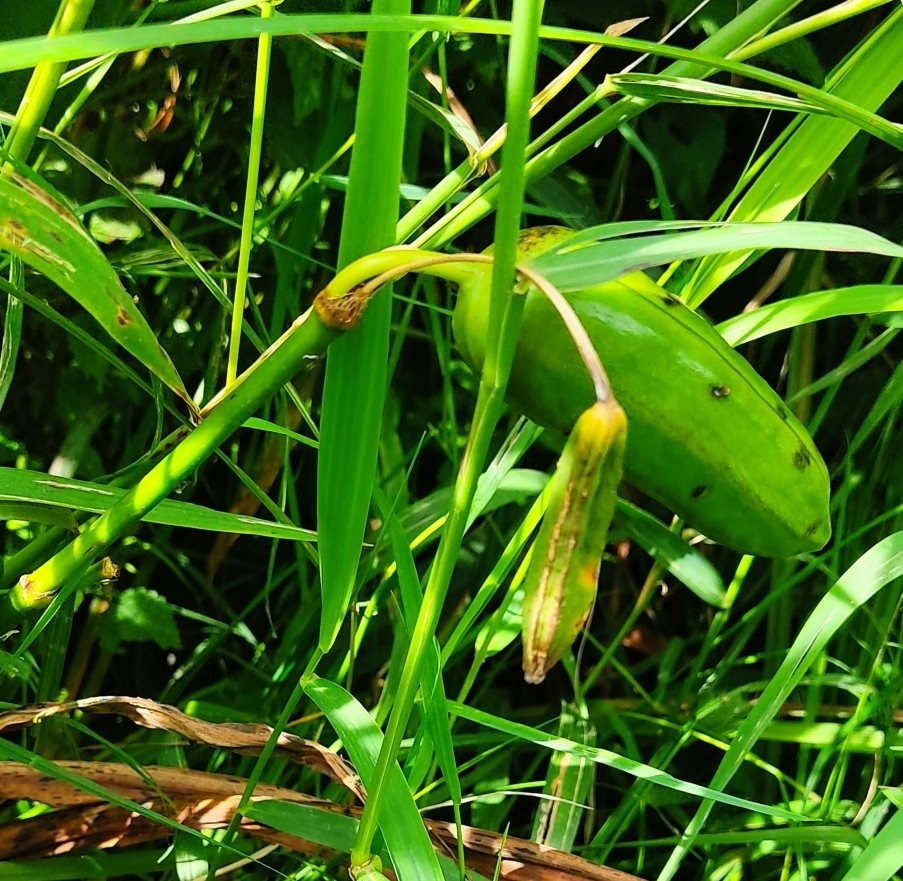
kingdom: Plantae
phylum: Tracheophyta
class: Liliopsida
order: Asparagales
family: Iridaceae
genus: Iris
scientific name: Iris pseudacorus
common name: Yellow flag
